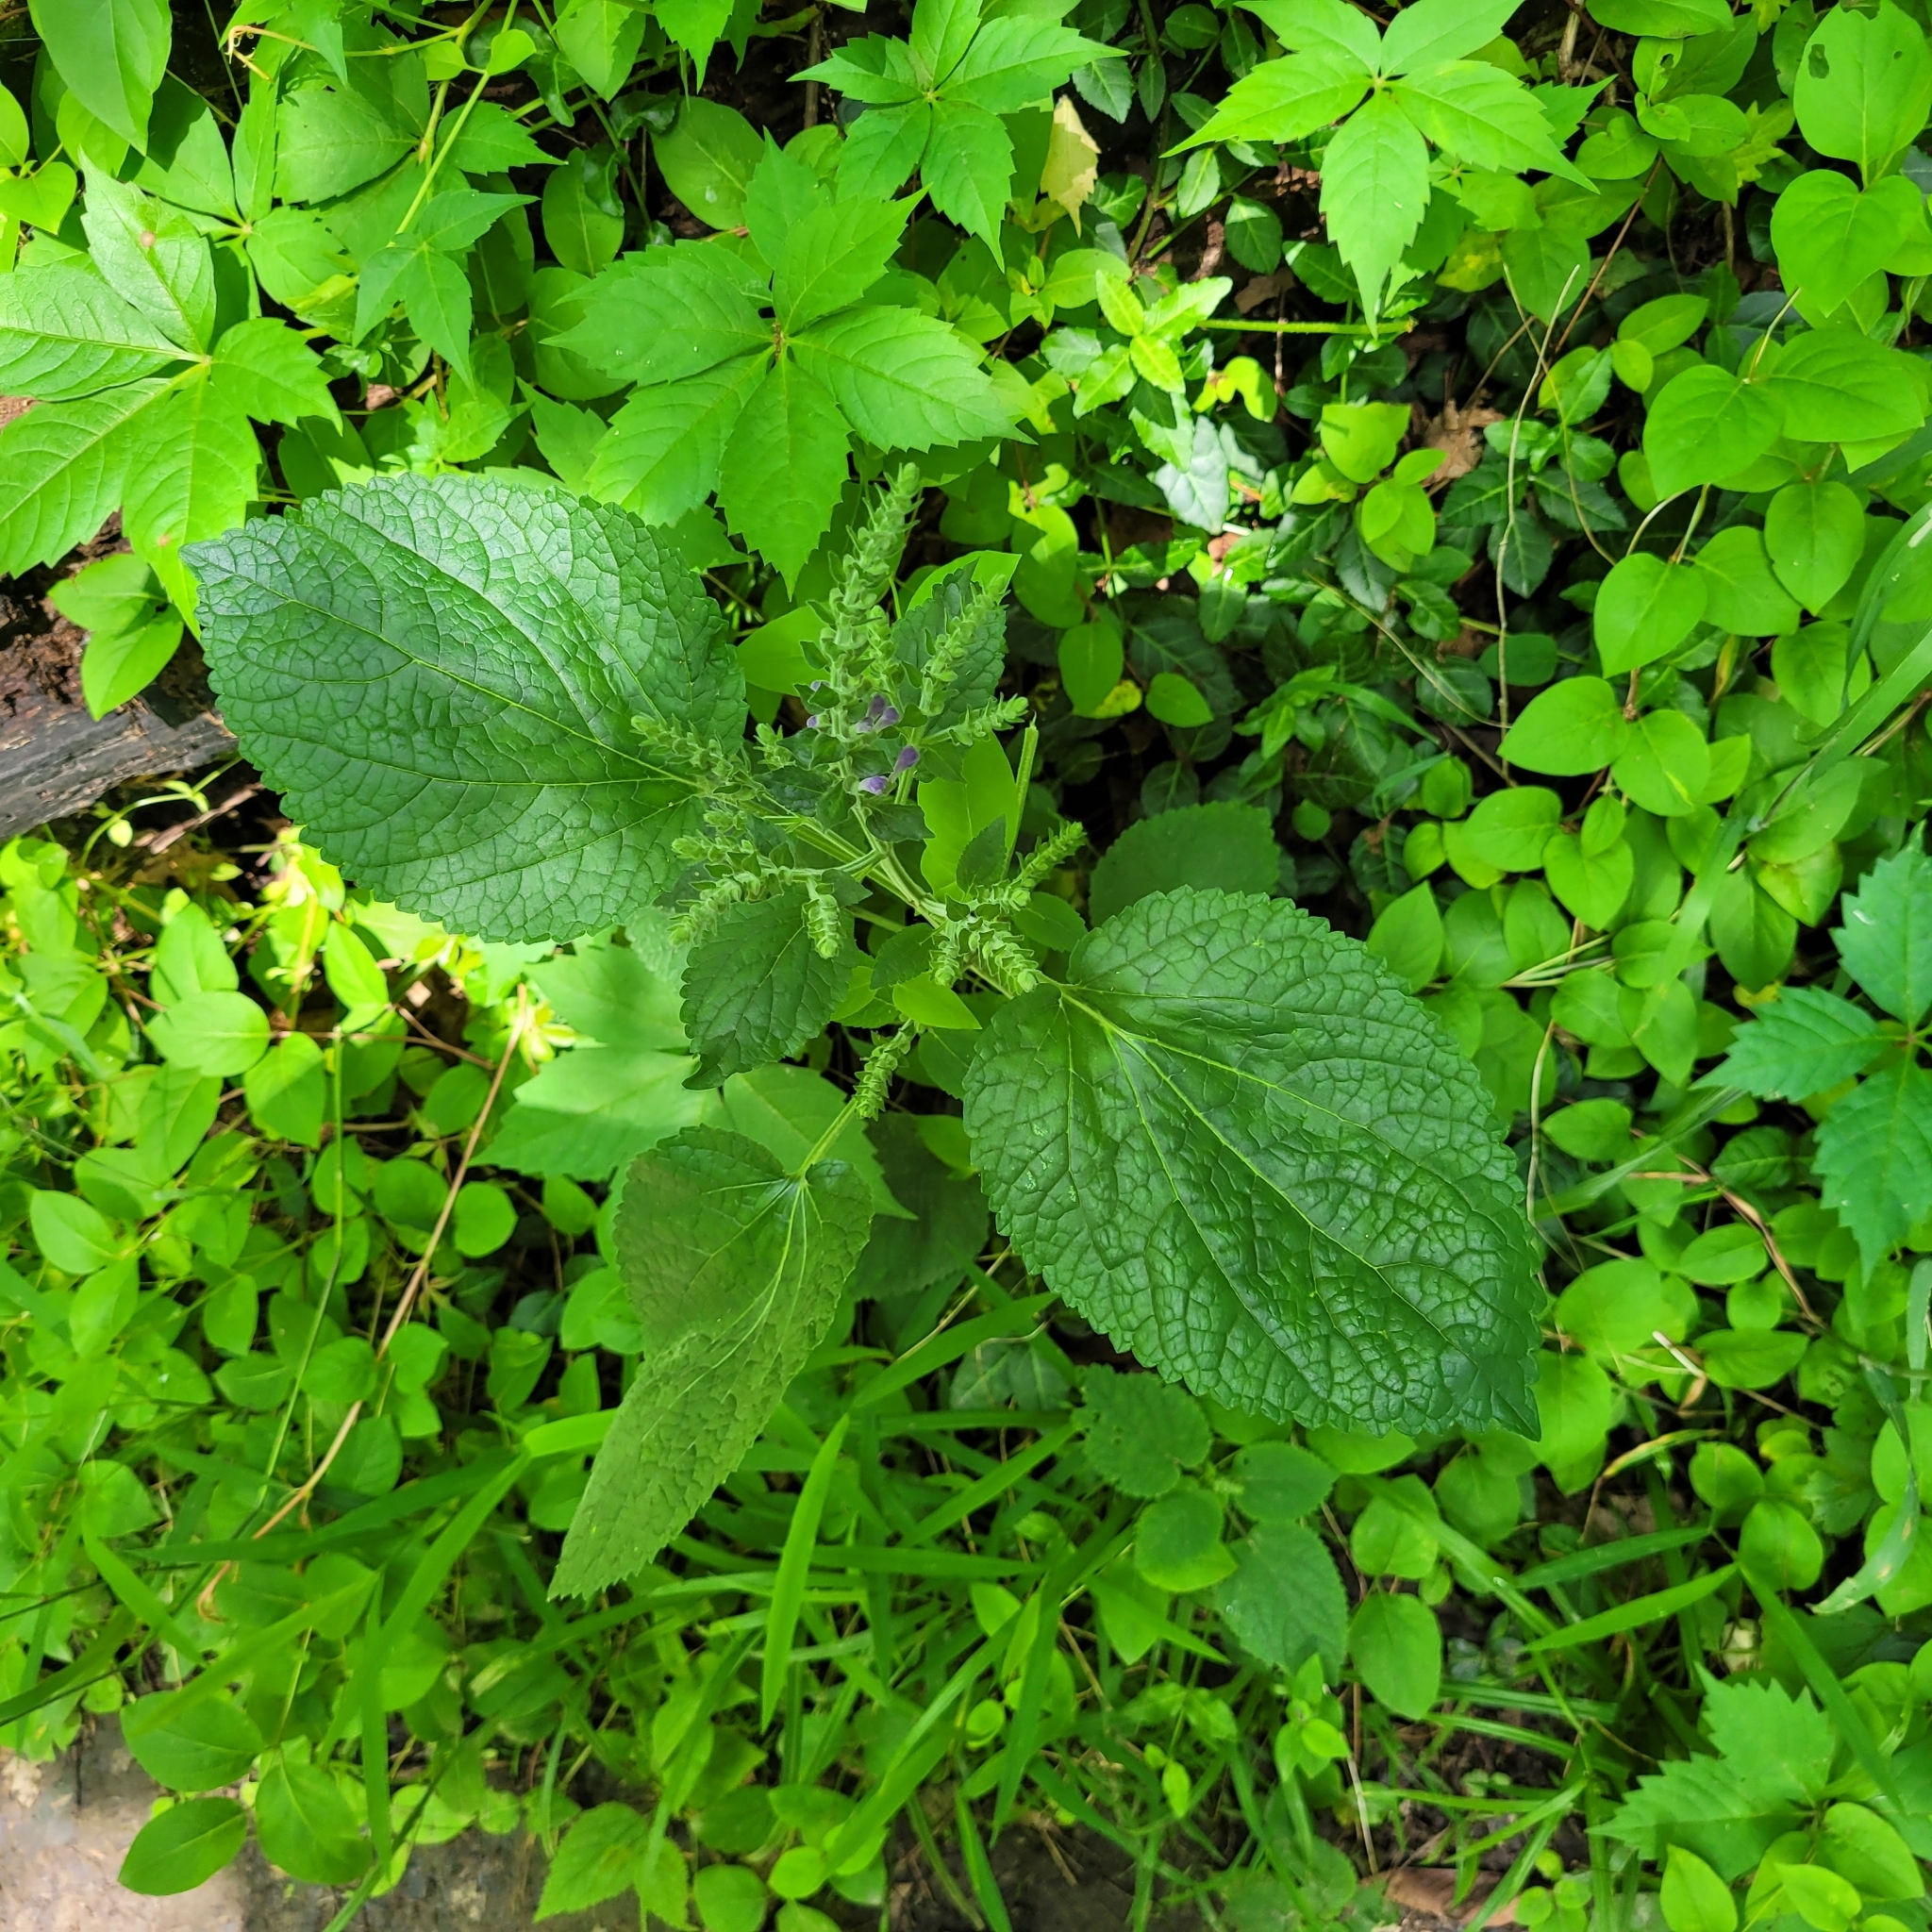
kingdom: Plantae
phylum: Tracheophyta
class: Magnoliopsida
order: Lamiales
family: Lamiaceae
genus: Scutellaria
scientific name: Scutellaria ovata
